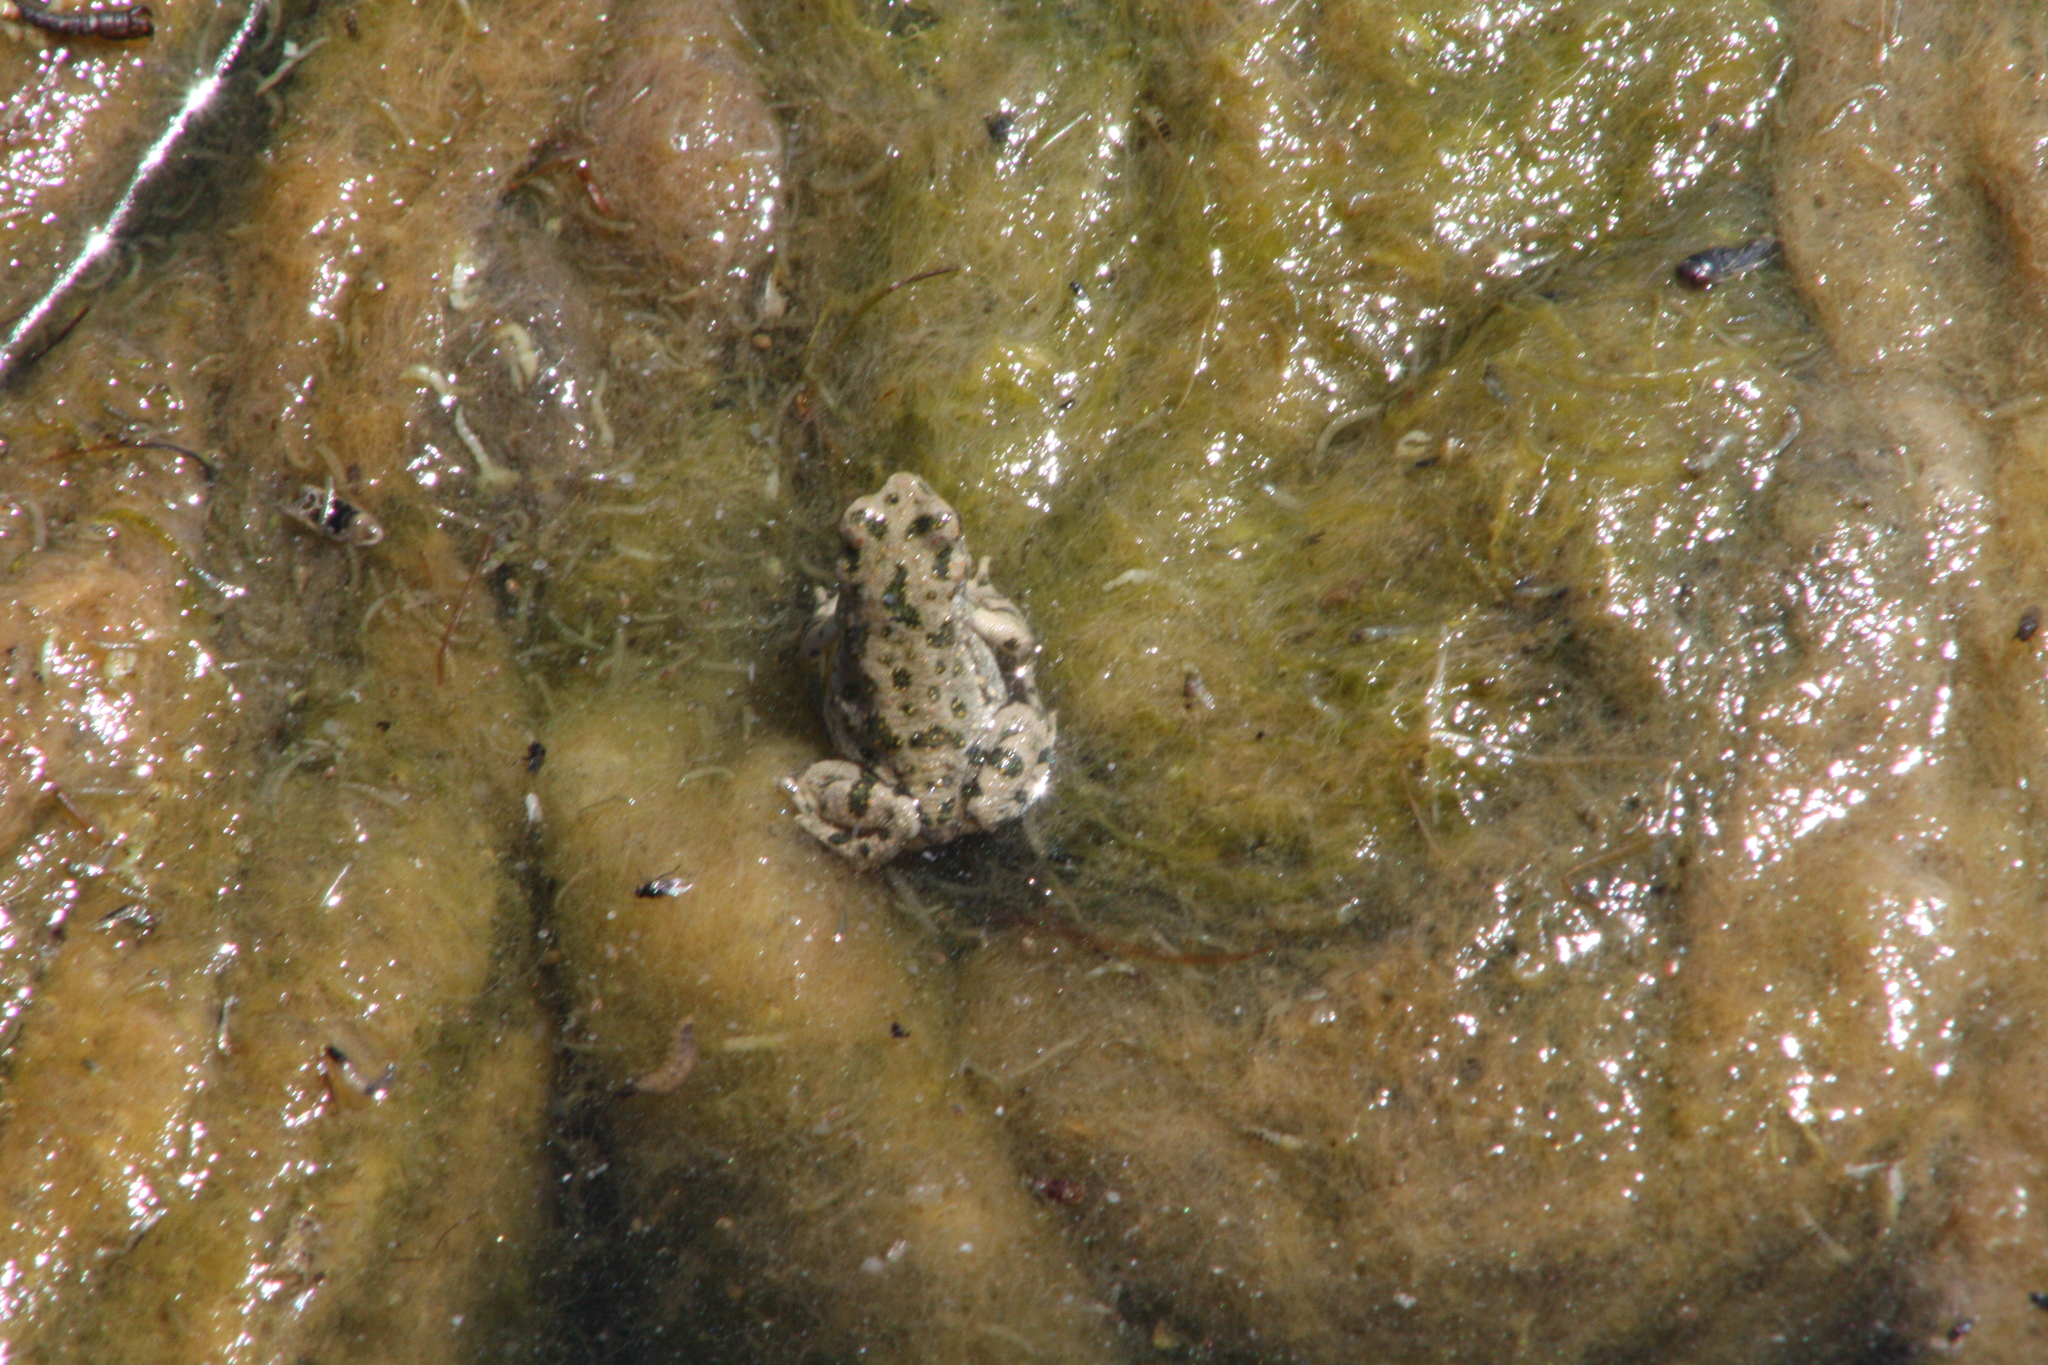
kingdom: Animalia
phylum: Chordata
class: Amphibia
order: Anura
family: Bufonidae
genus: Bufotes
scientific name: Bufotes viridis
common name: European green toad
